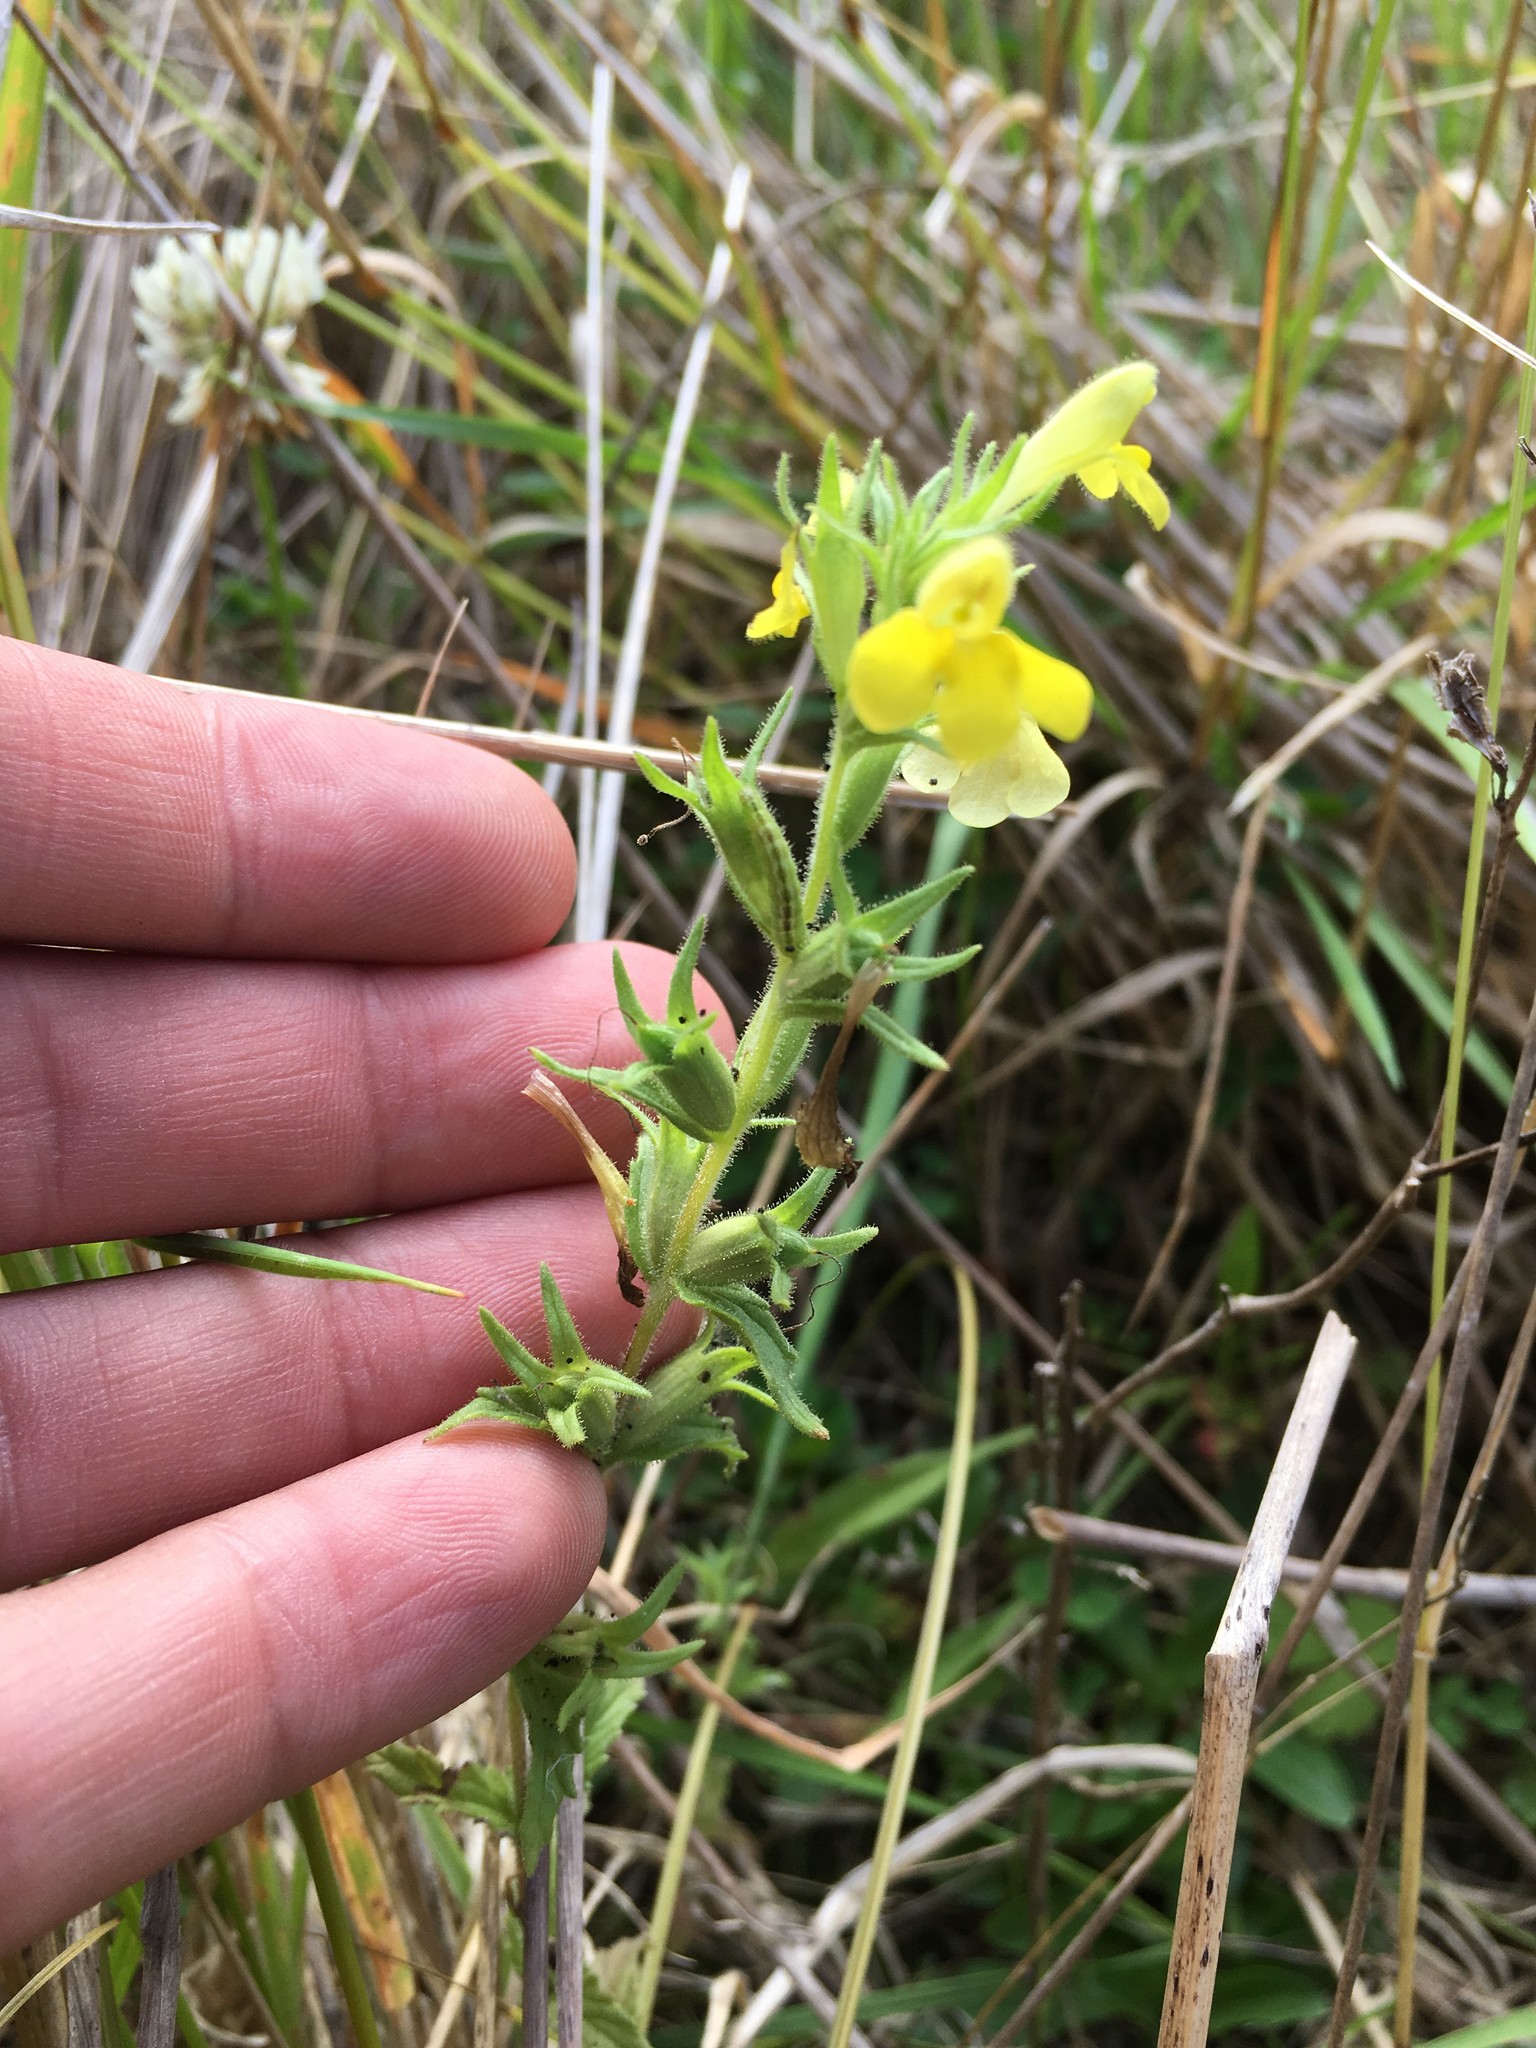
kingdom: Plantae
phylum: Tracheophyta
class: Magnoliopsida
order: Lamiales
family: Orobanchaceae
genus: Bellardia
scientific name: Bellardia viscosa
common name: Sticky parentucellia
